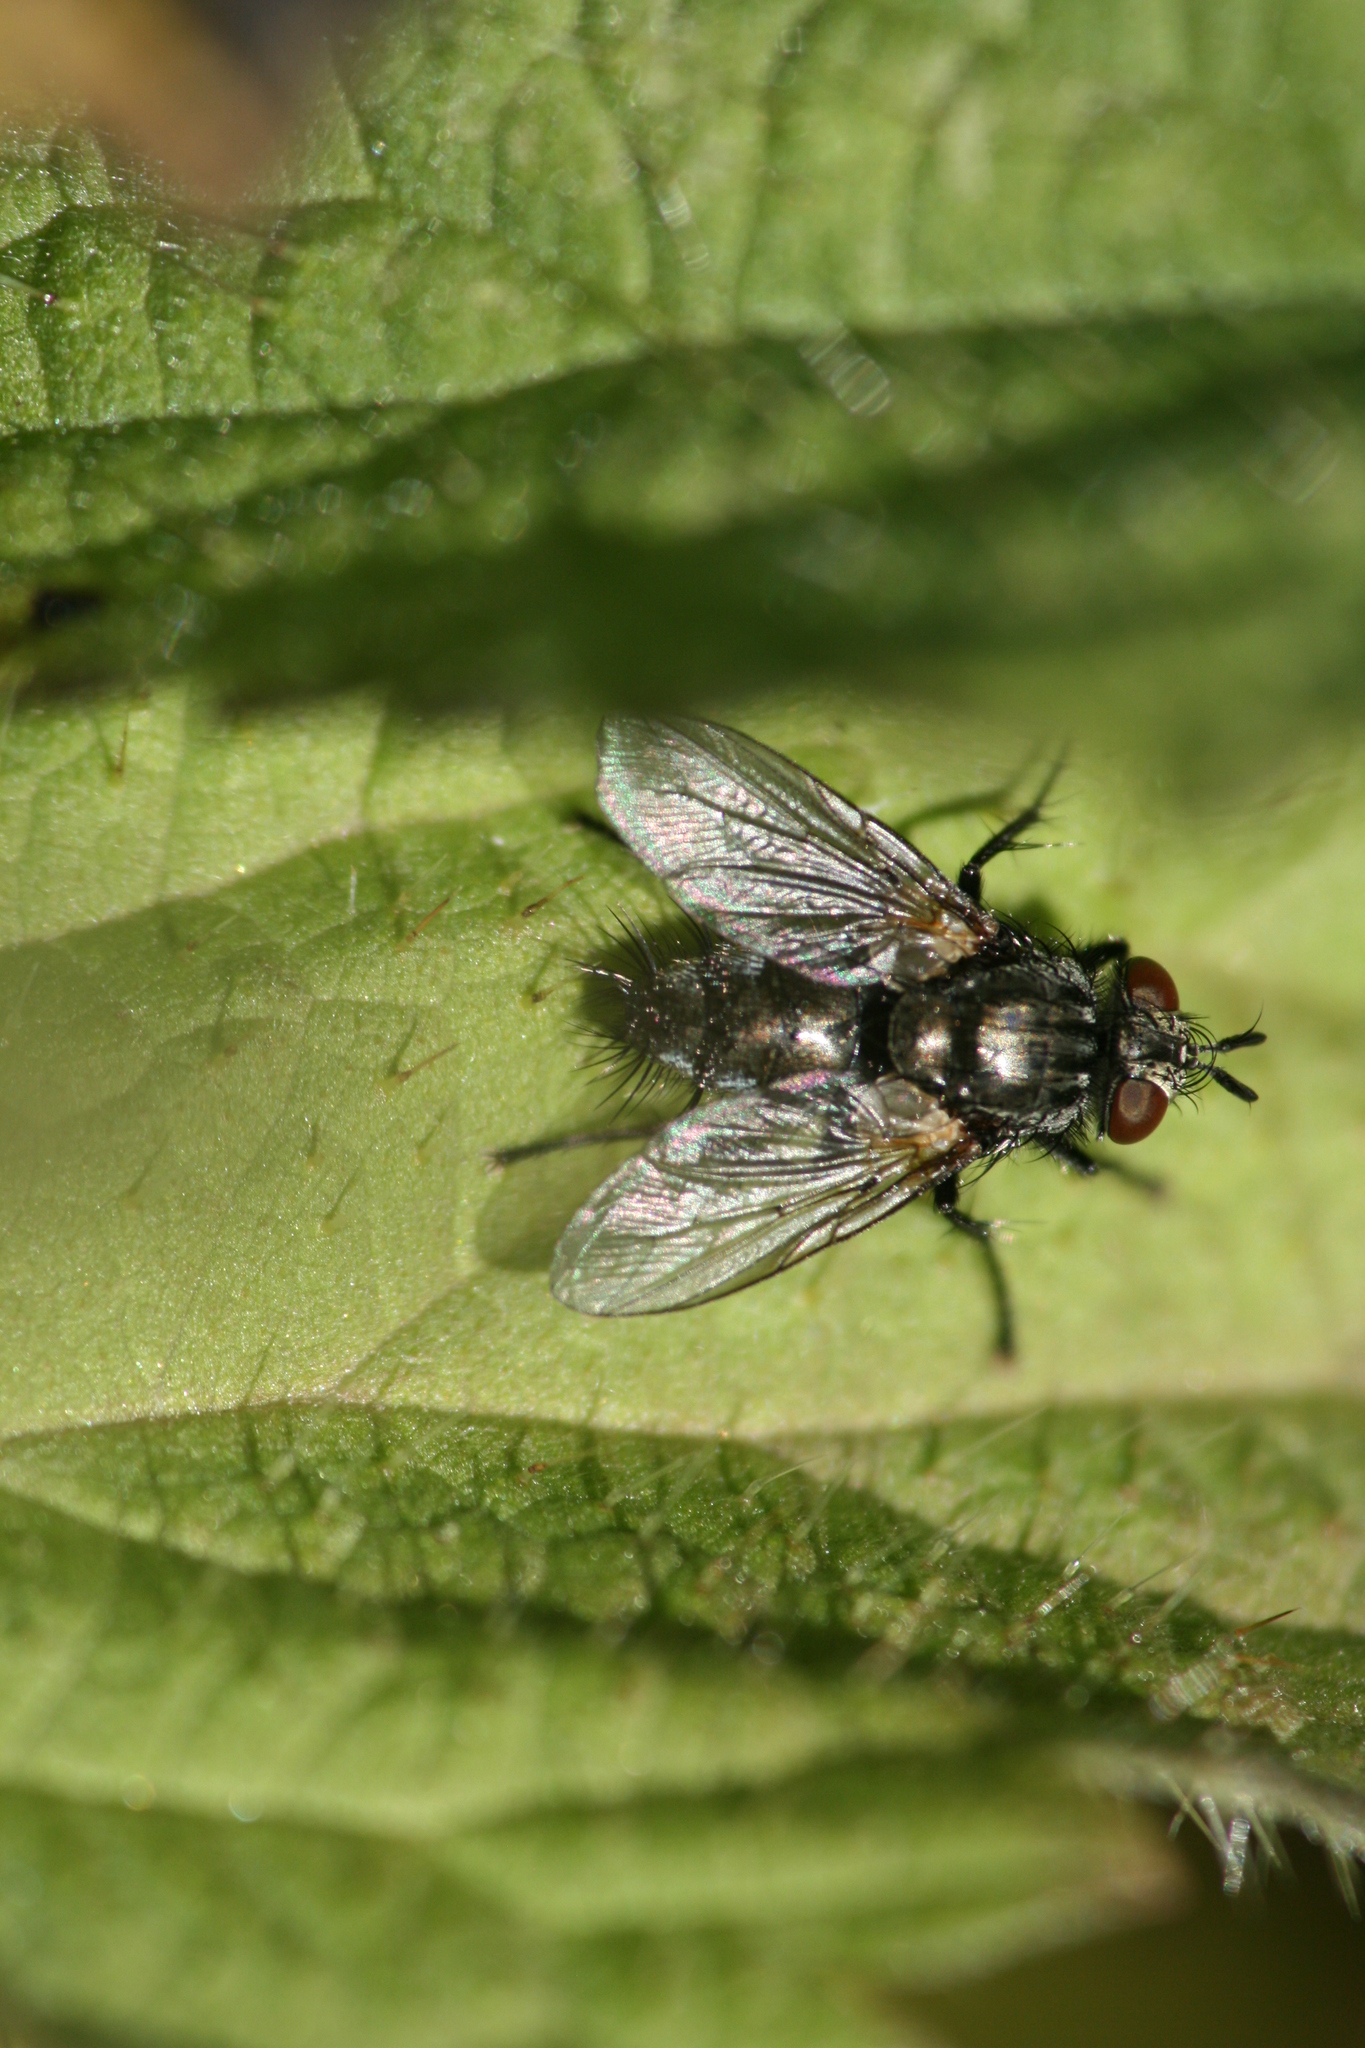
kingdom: Animalia
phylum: Arthropoda
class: Insecta
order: Diptera
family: Tachinidae
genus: Voria
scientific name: Voria ruralis
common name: Parasitic fly
